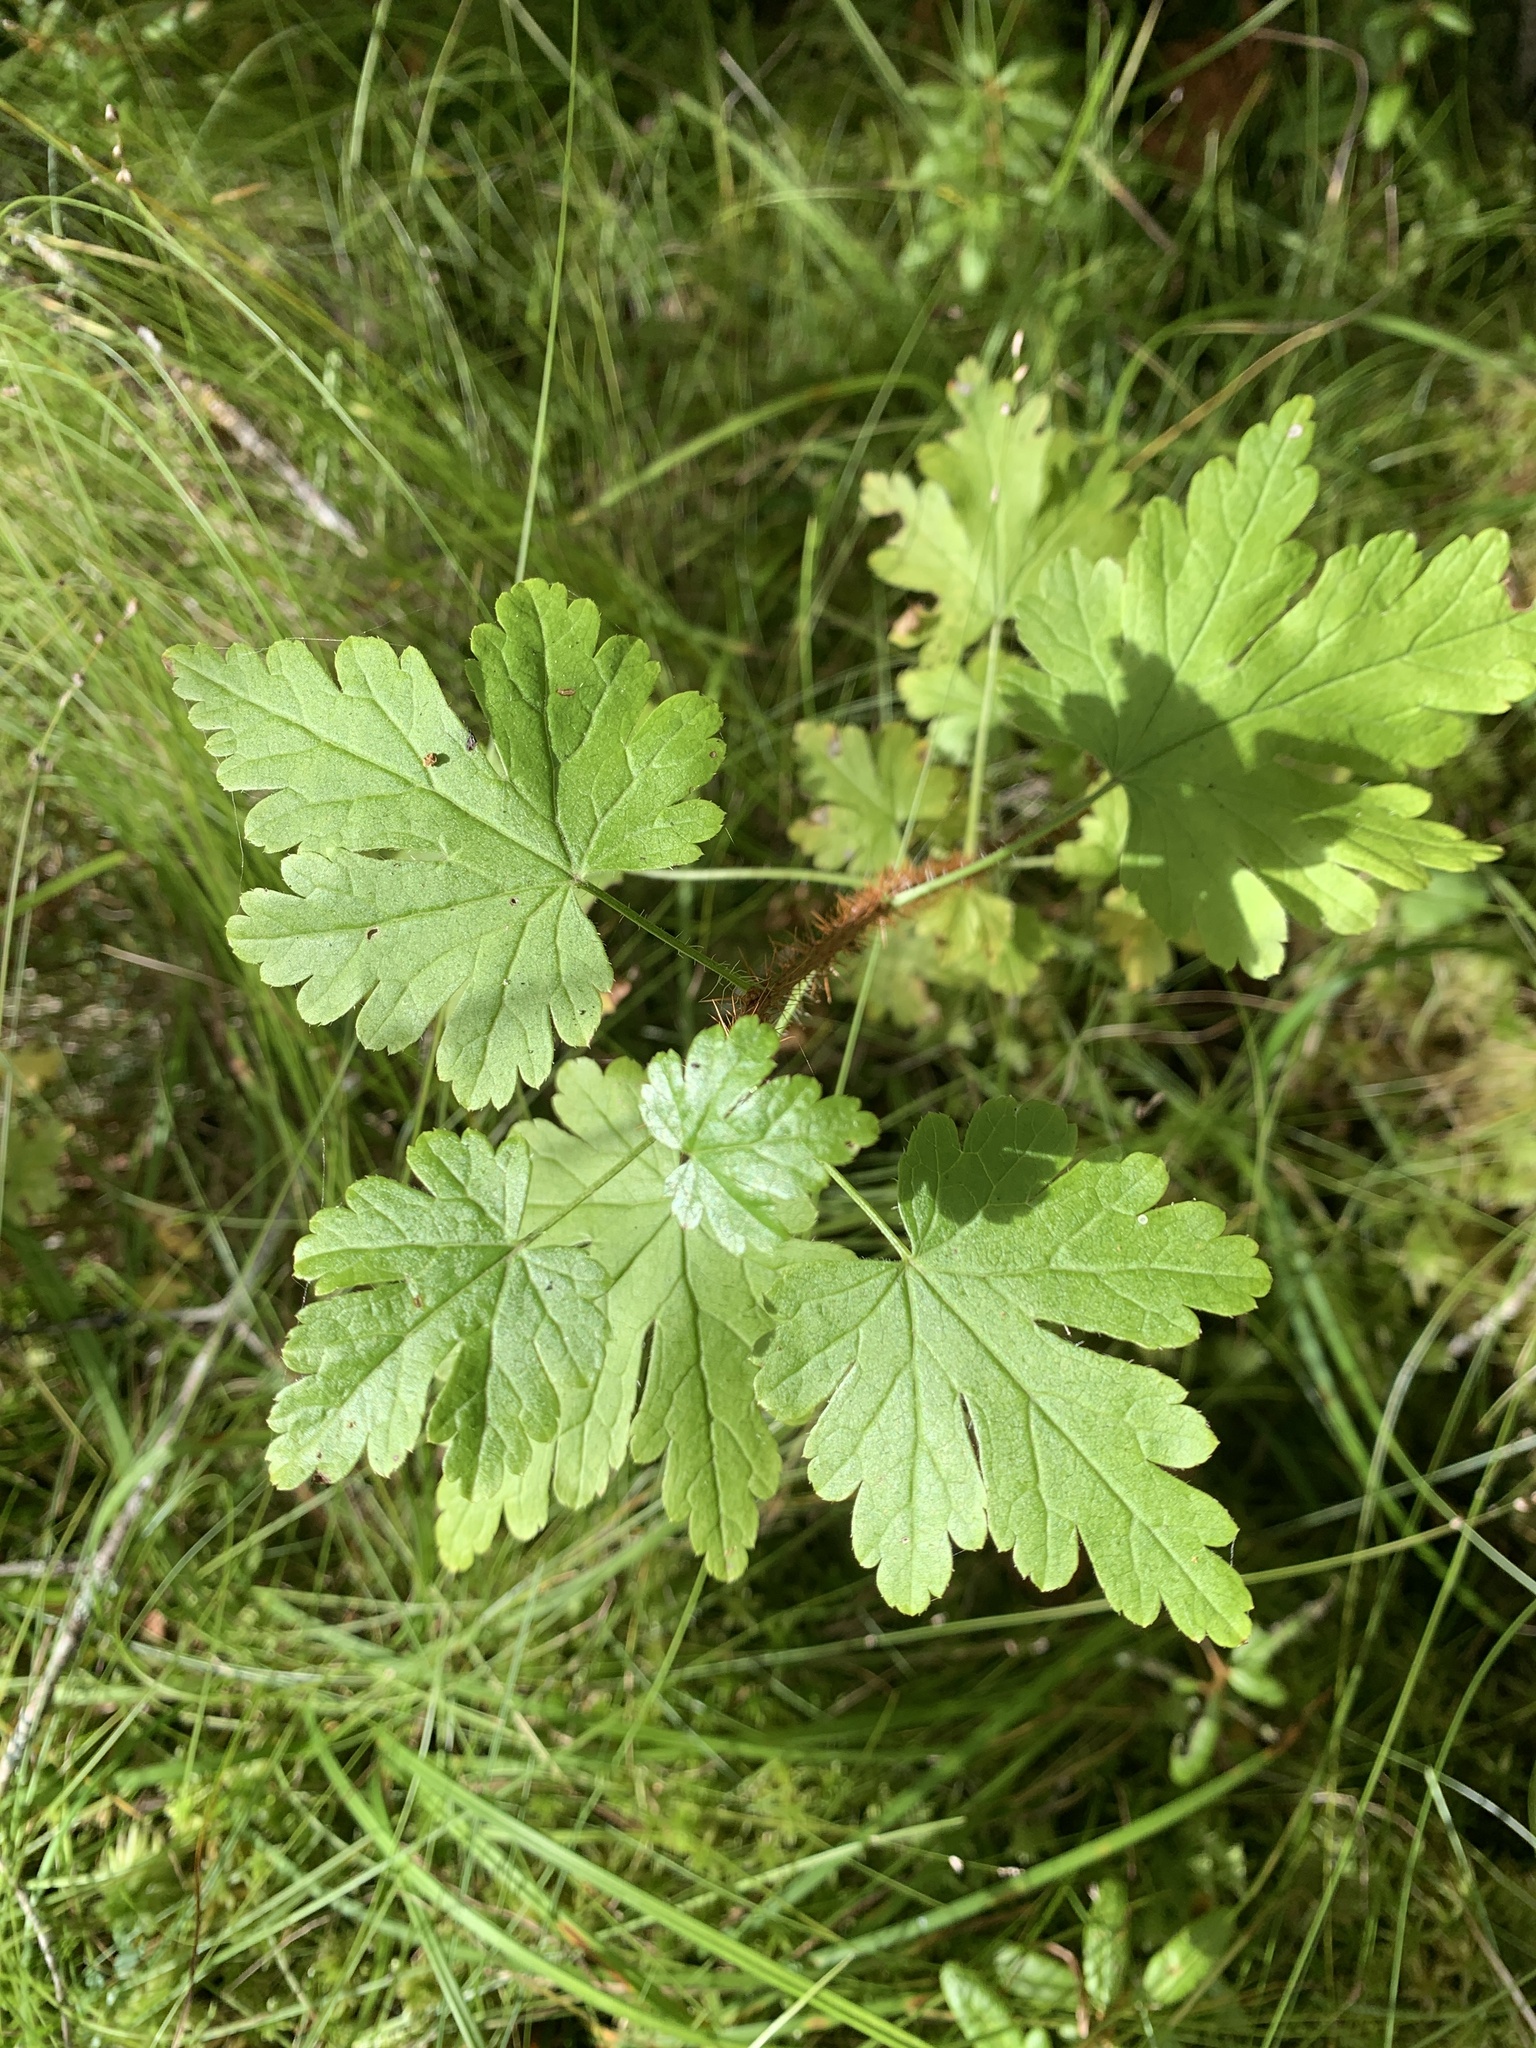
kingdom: Plantae
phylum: Tracheophyta
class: Magnoliopsida
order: Saxifragales
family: Grossulariaceae
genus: Ribes
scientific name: Ribes lacustre
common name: Black gooseberry
